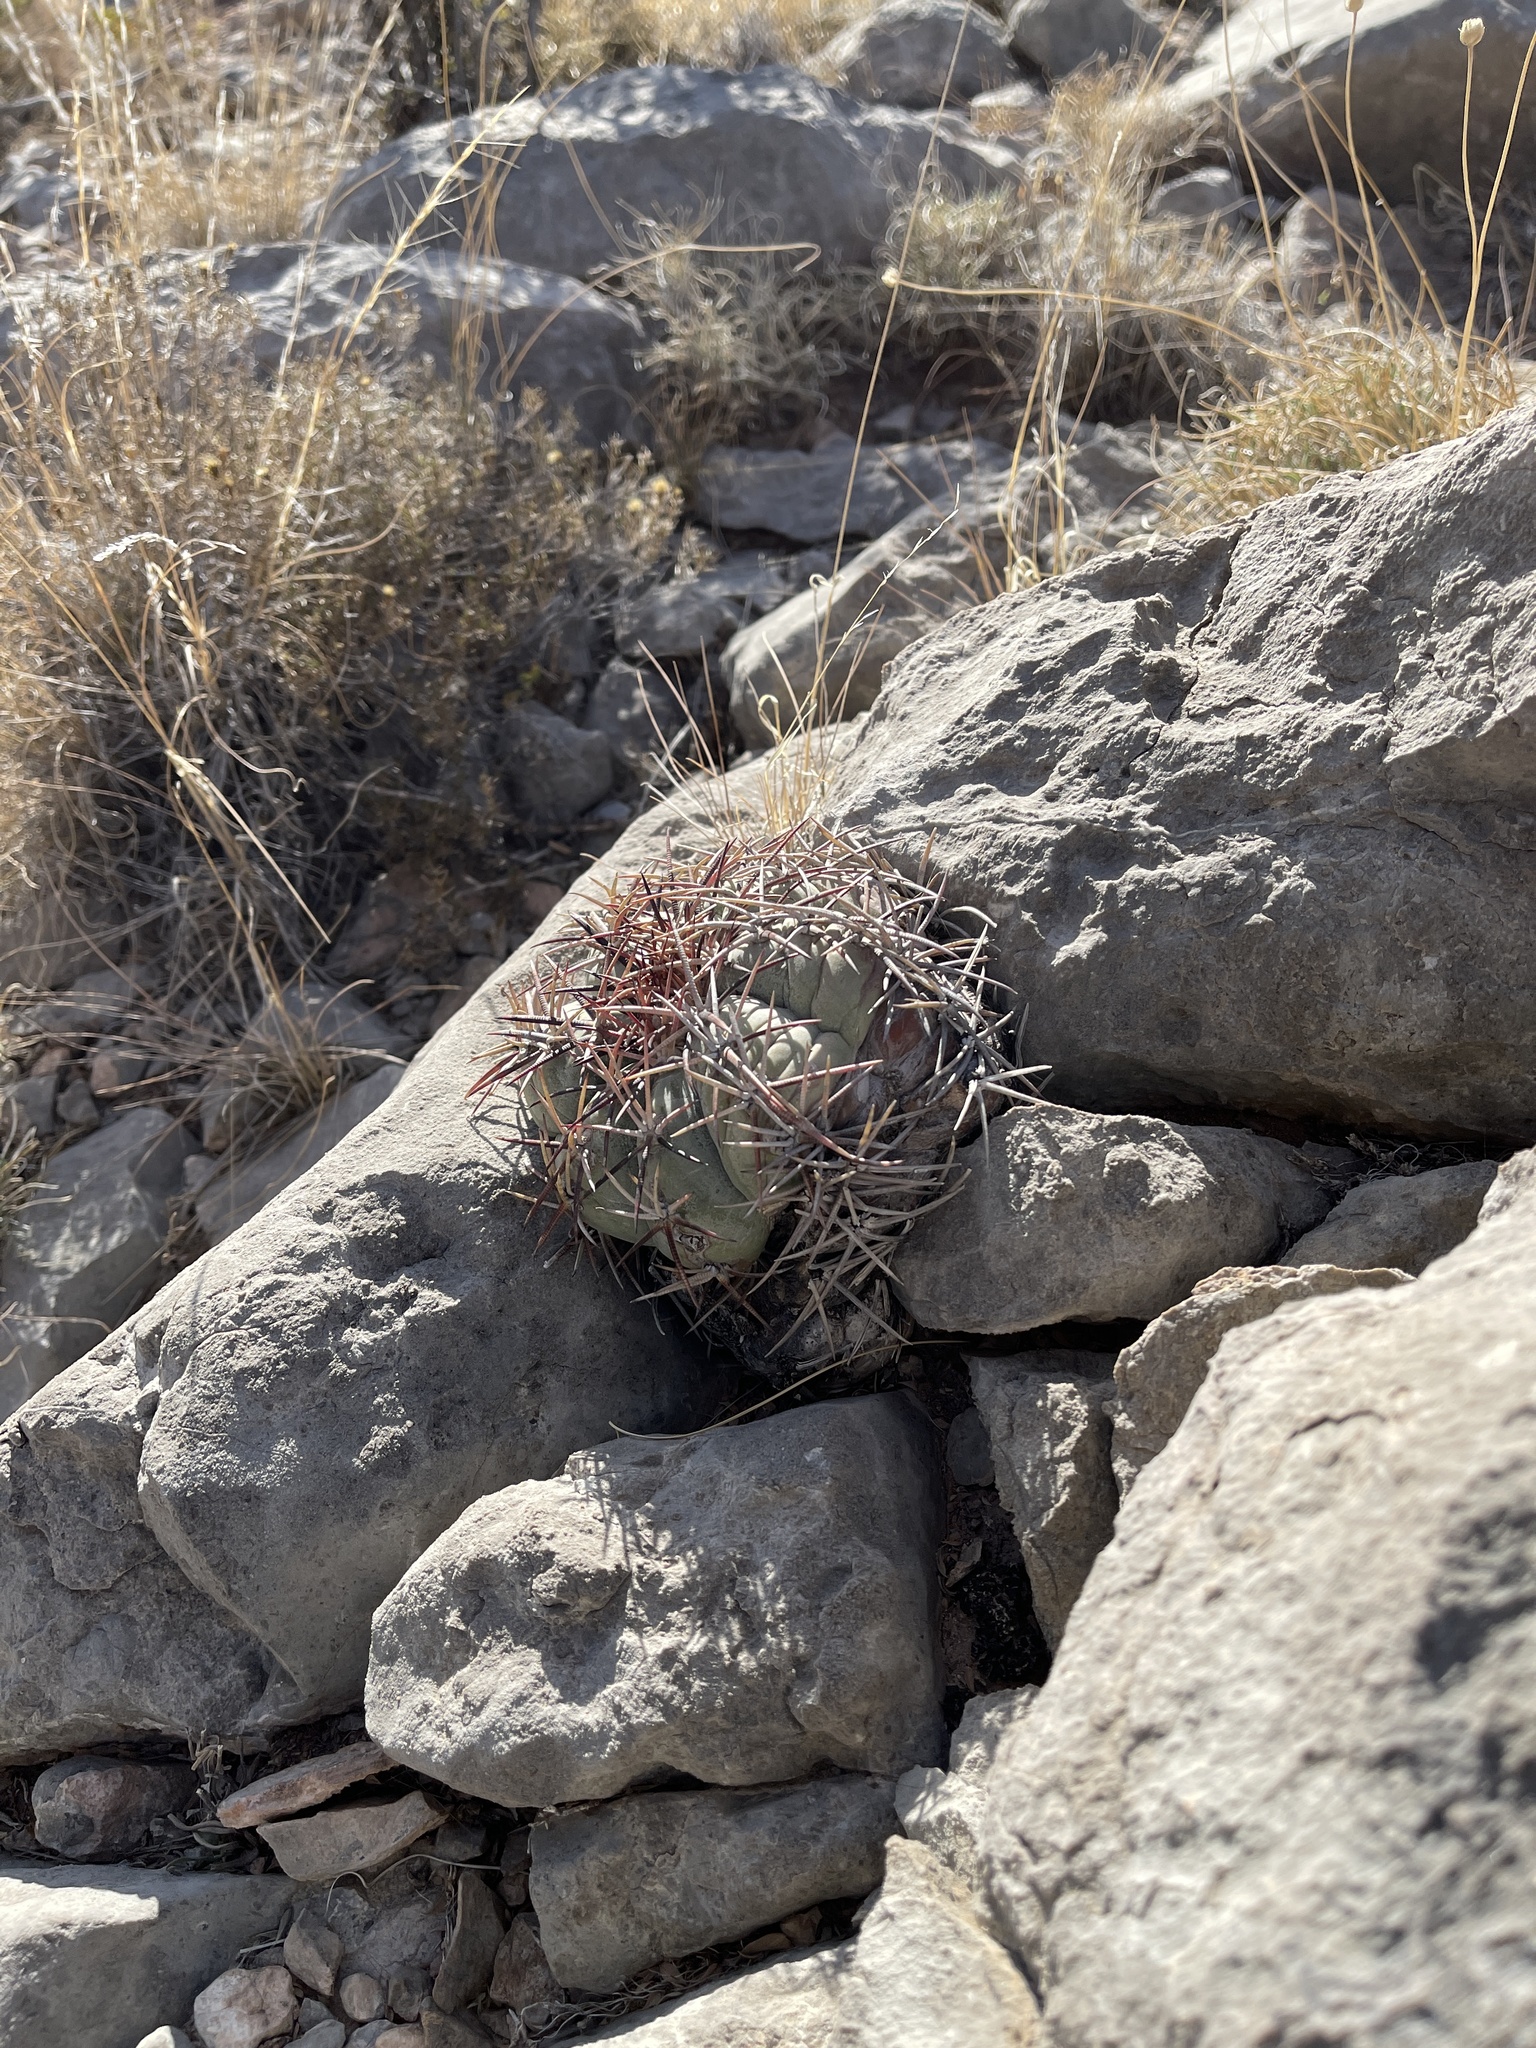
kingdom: Plantae
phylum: Tracheophyta
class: Magnoliopsida
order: Caryophyllales
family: Cactaceae
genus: Echinocactus
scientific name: Echinocactus horizonthalonius
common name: Devilshead
